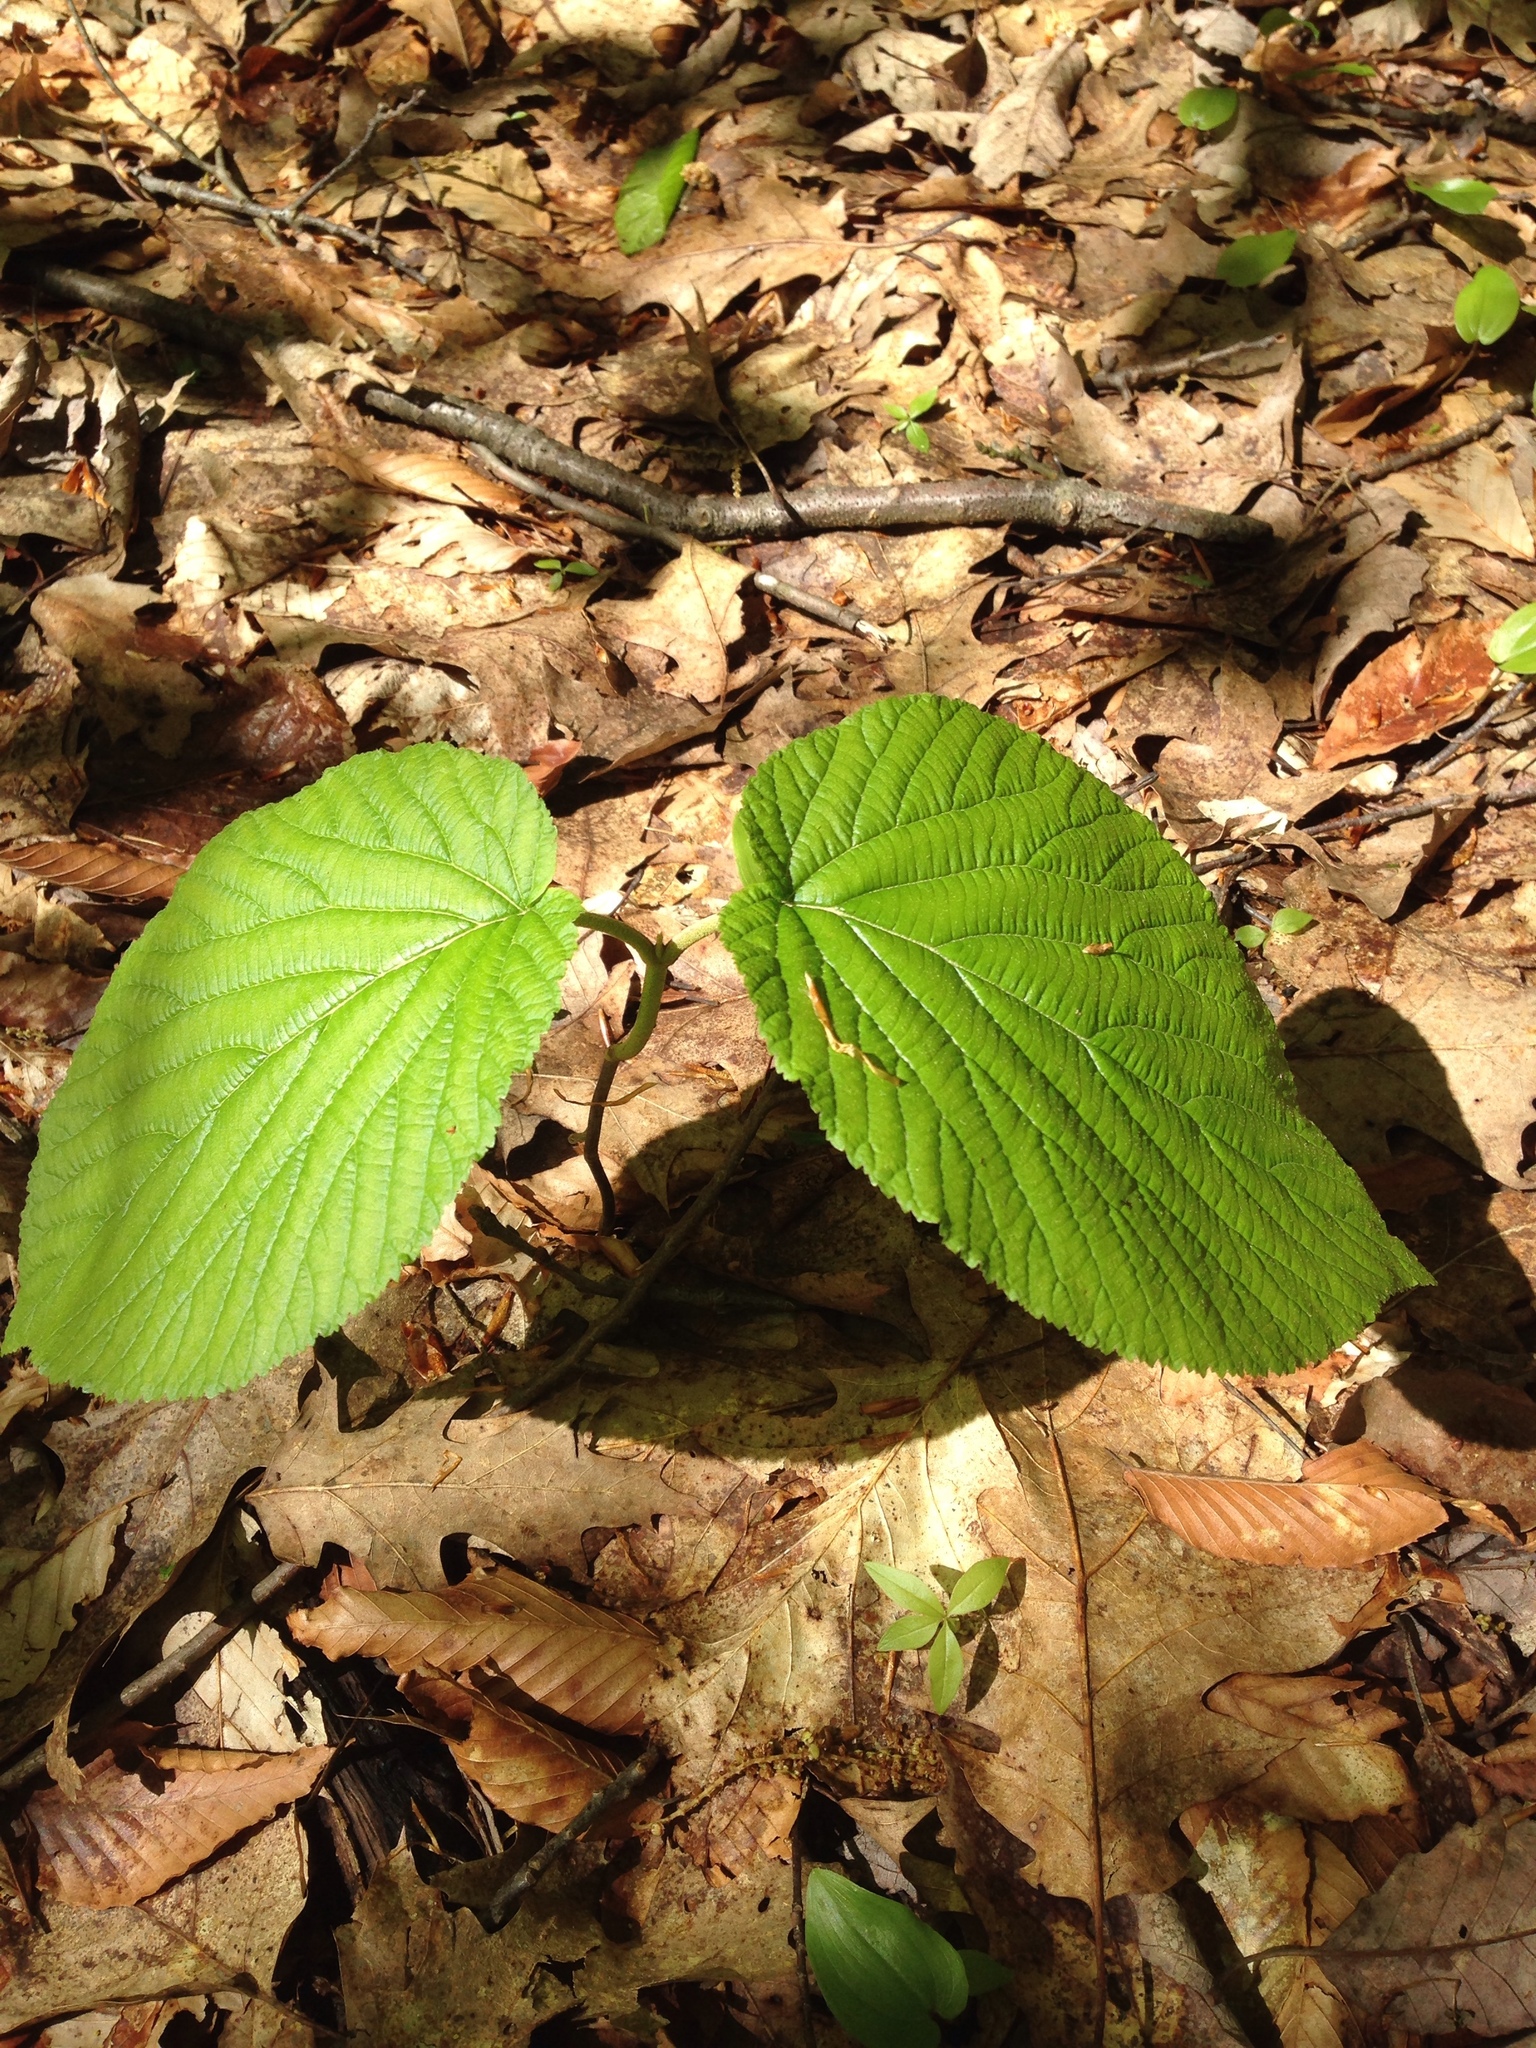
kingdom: Plantae
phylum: Tracheophyta
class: Magnoliopsida
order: Dipsacales
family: Viburnaceae
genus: Viburnum
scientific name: Viburnum lantanoides
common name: Hobblebush
